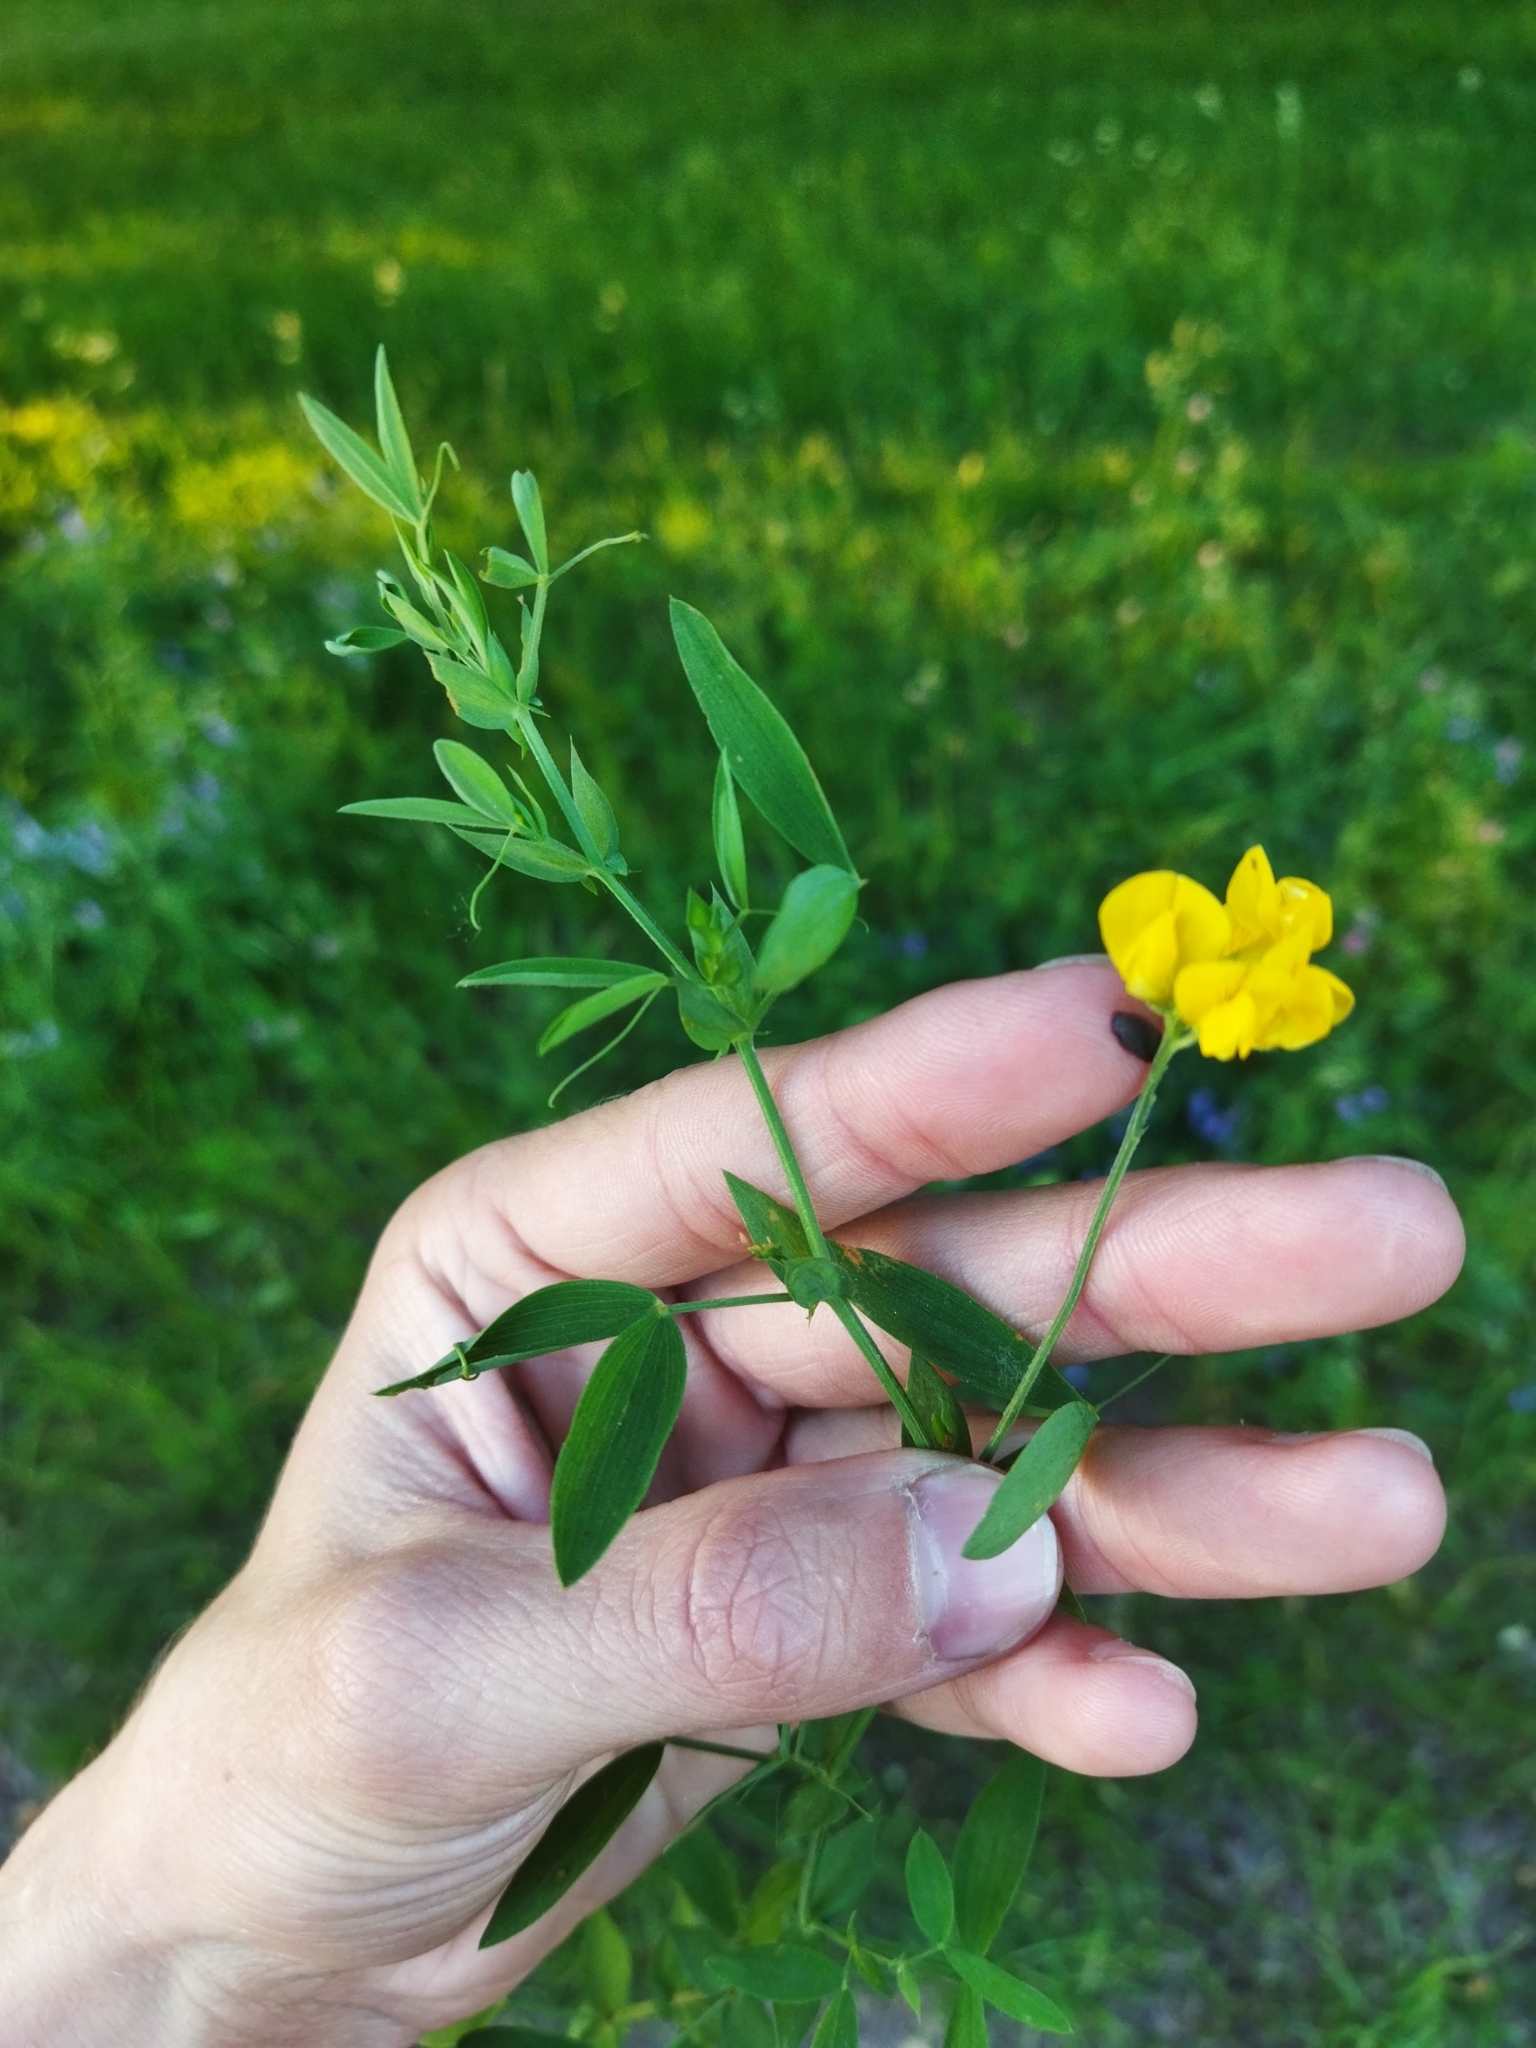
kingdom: Plantae
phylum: Tracheophyta
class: Magnoliopsida
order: Fabales
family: Fabaceae
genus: Lathyrus
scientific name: Lathyrus pratensis
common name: Meadow vetchling
